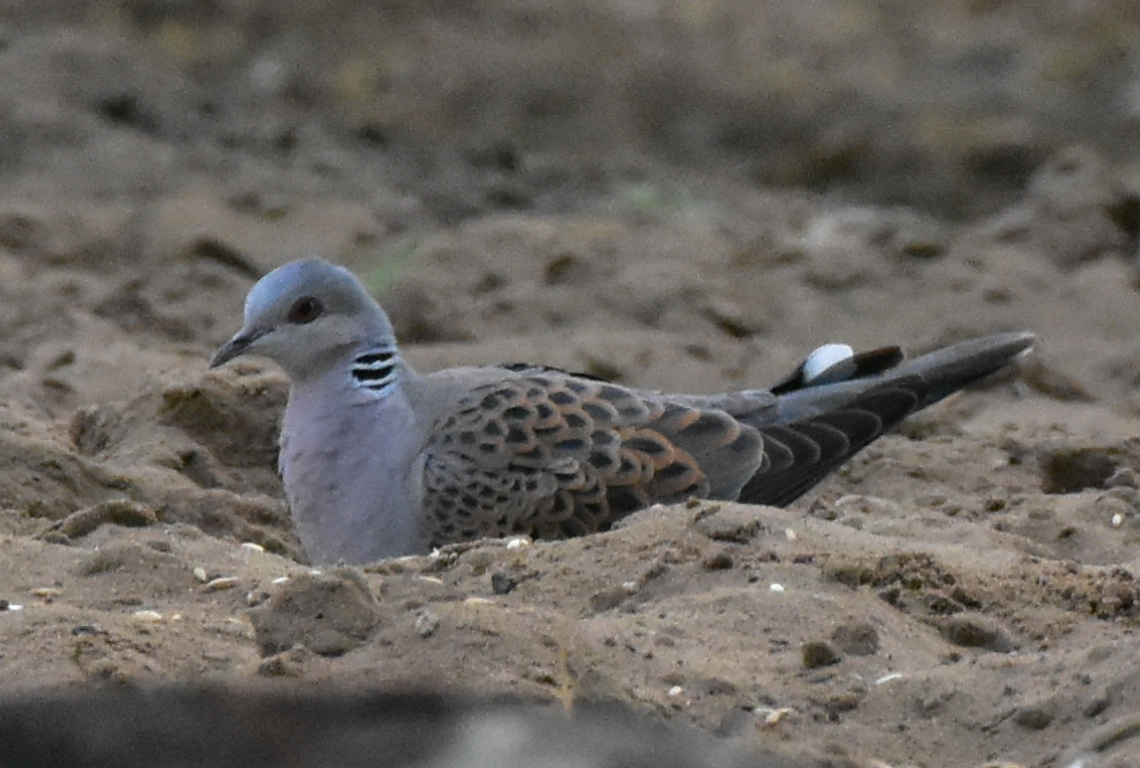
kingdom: Animalia
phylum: Chordata
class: Aves
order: Columbiformes
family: Columbidae
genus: Streptopelia
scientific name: Streptopelia turtur
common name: European turtle dove
